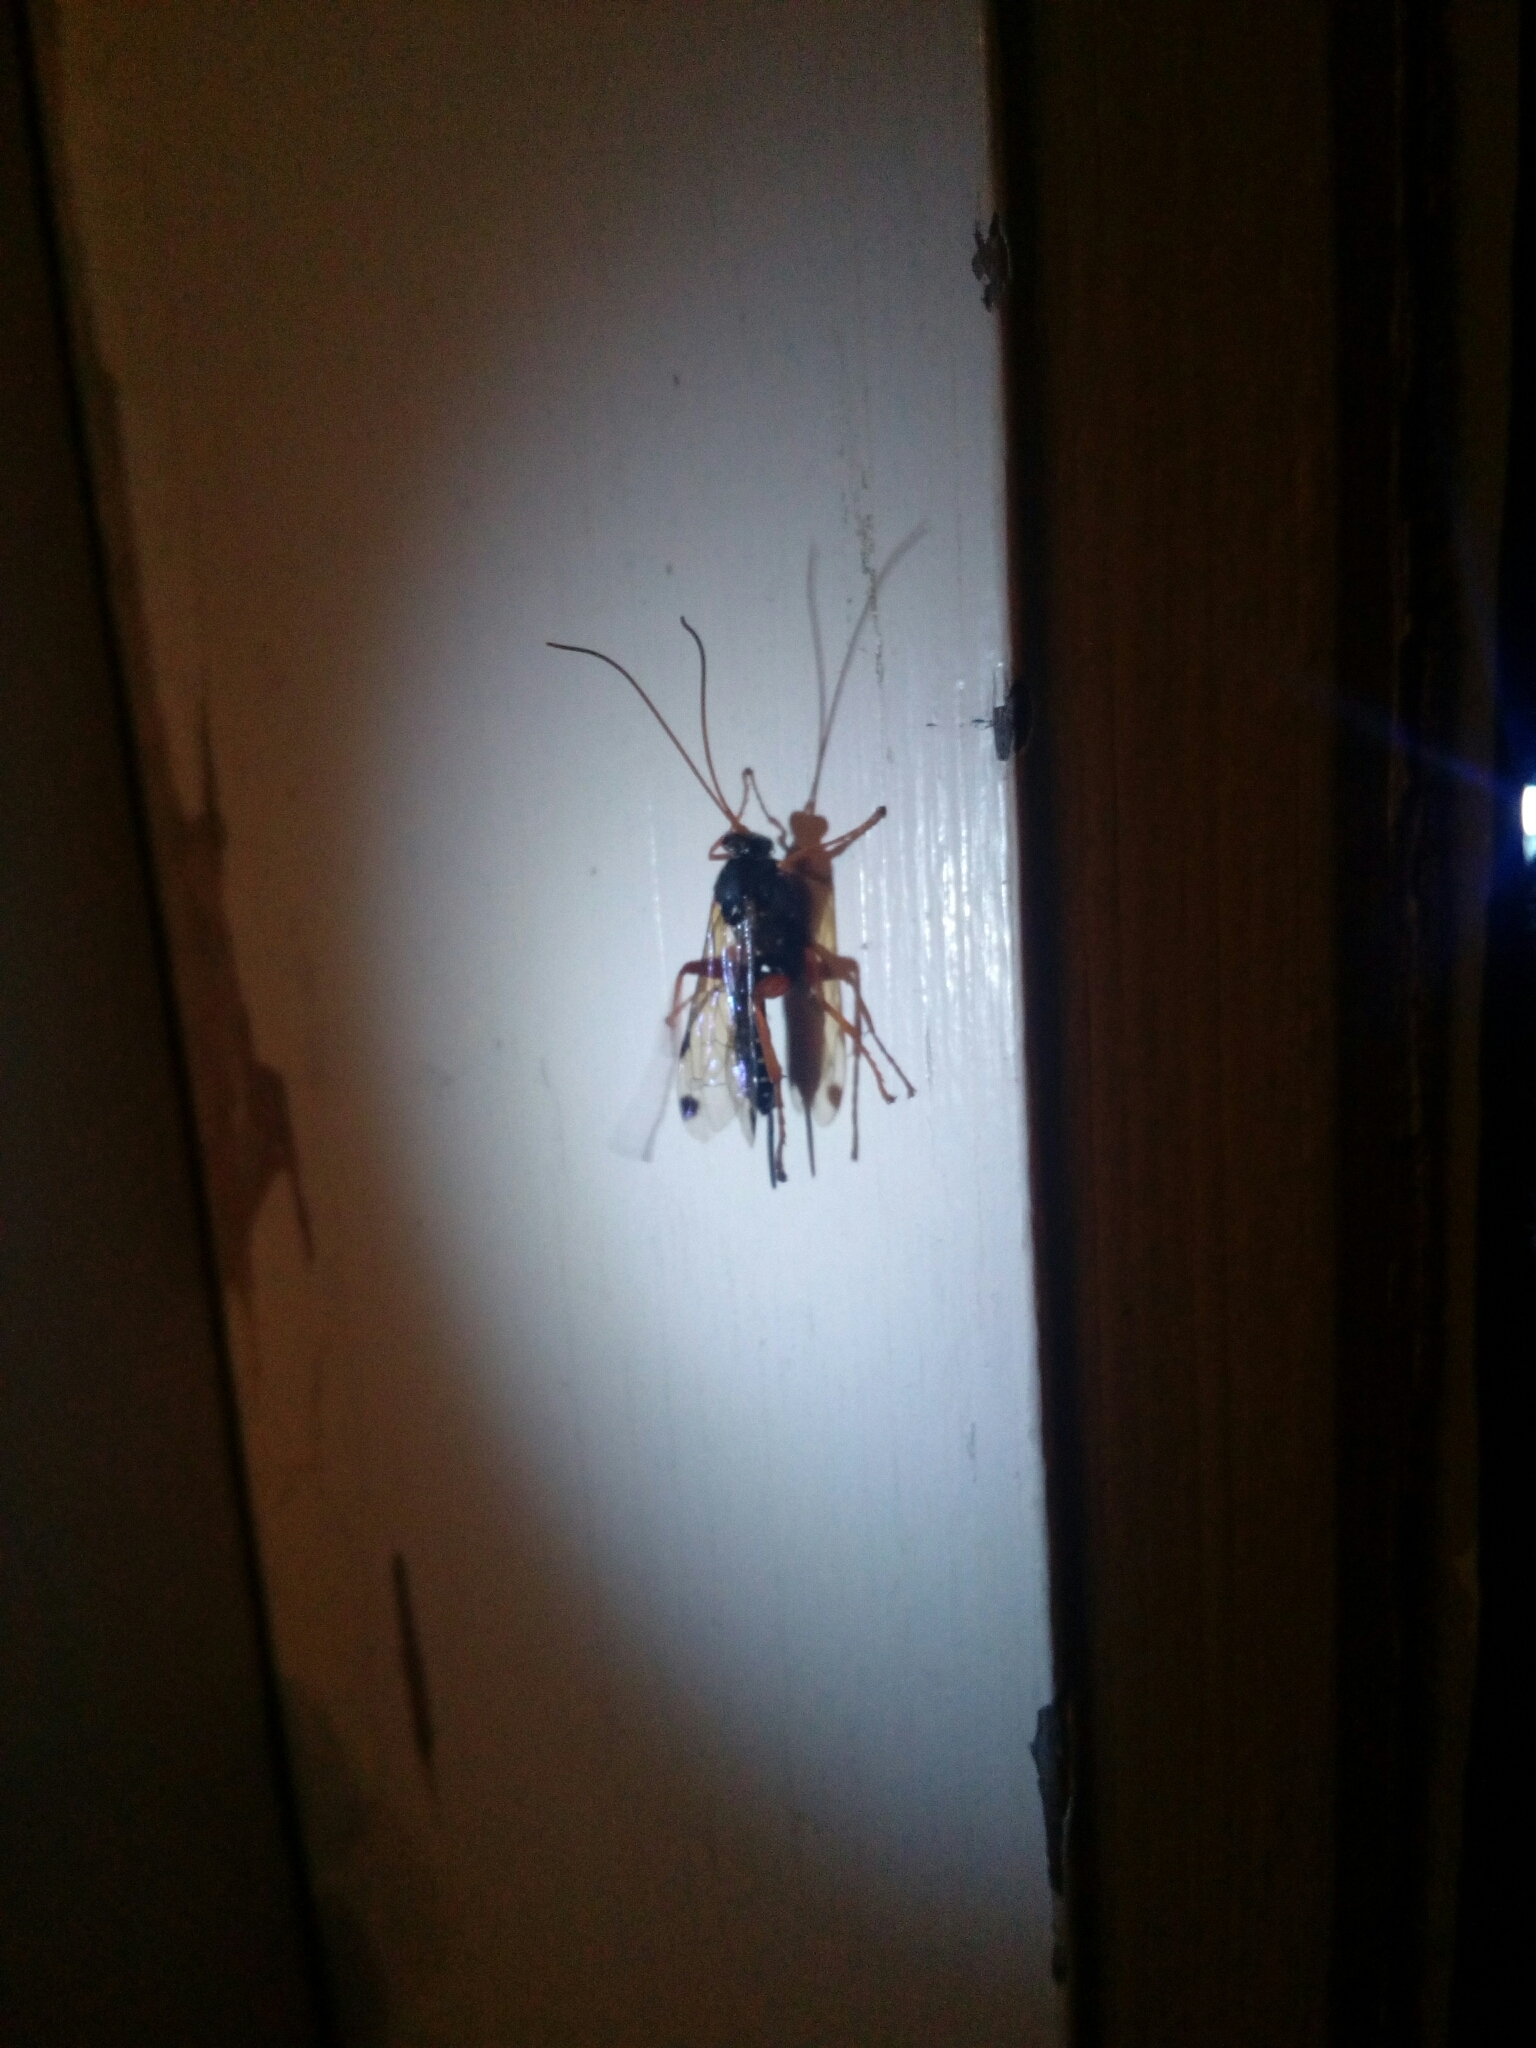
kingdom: Animalia
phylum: Arthropoda
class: Insecta
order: Hymenoptera
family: Ichneumonidae
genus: Echthromorpha
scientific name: Echthromorpha intricatoria
